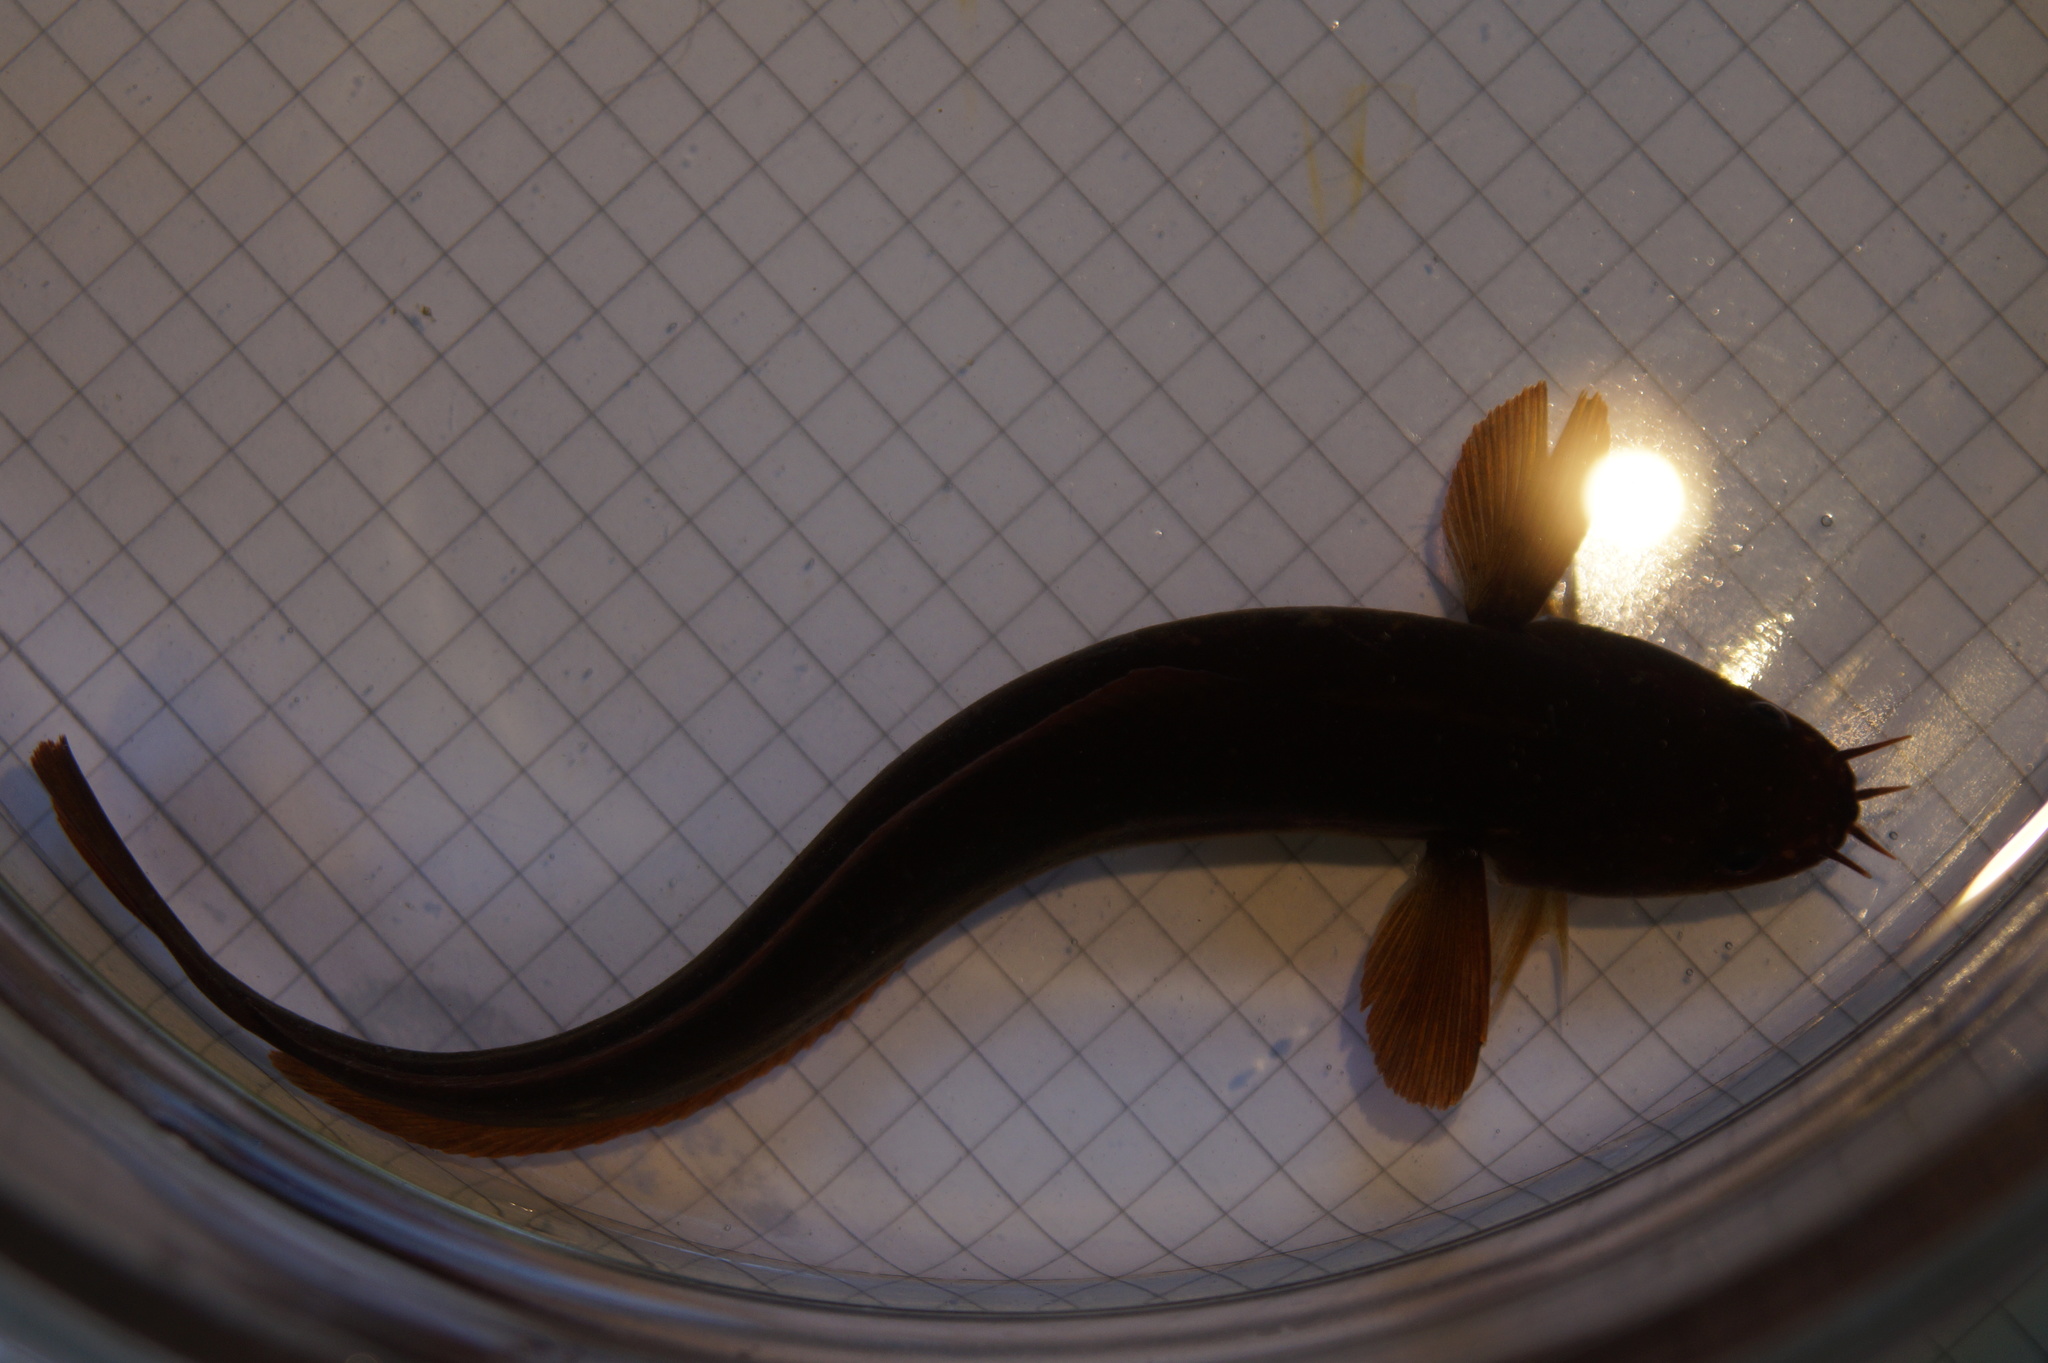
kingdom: Animalia
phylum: Chordata
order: Gadiformes
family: Lotidae
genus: Ciliata
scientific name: Ciliata mustela
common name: Five-bearded rockling
